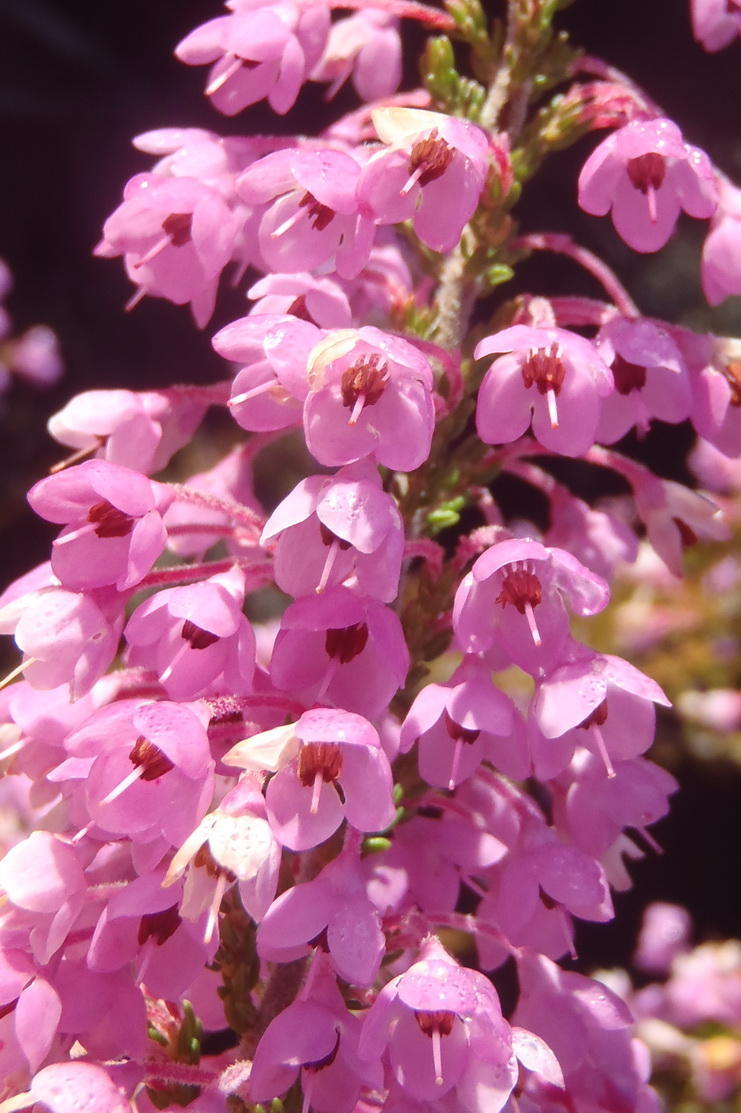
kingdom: Plantae
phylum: Tracheophyta
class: Magnoliopsida
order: Ericales
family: Ericaceae
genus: Erica
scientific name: Erica newdigatei
